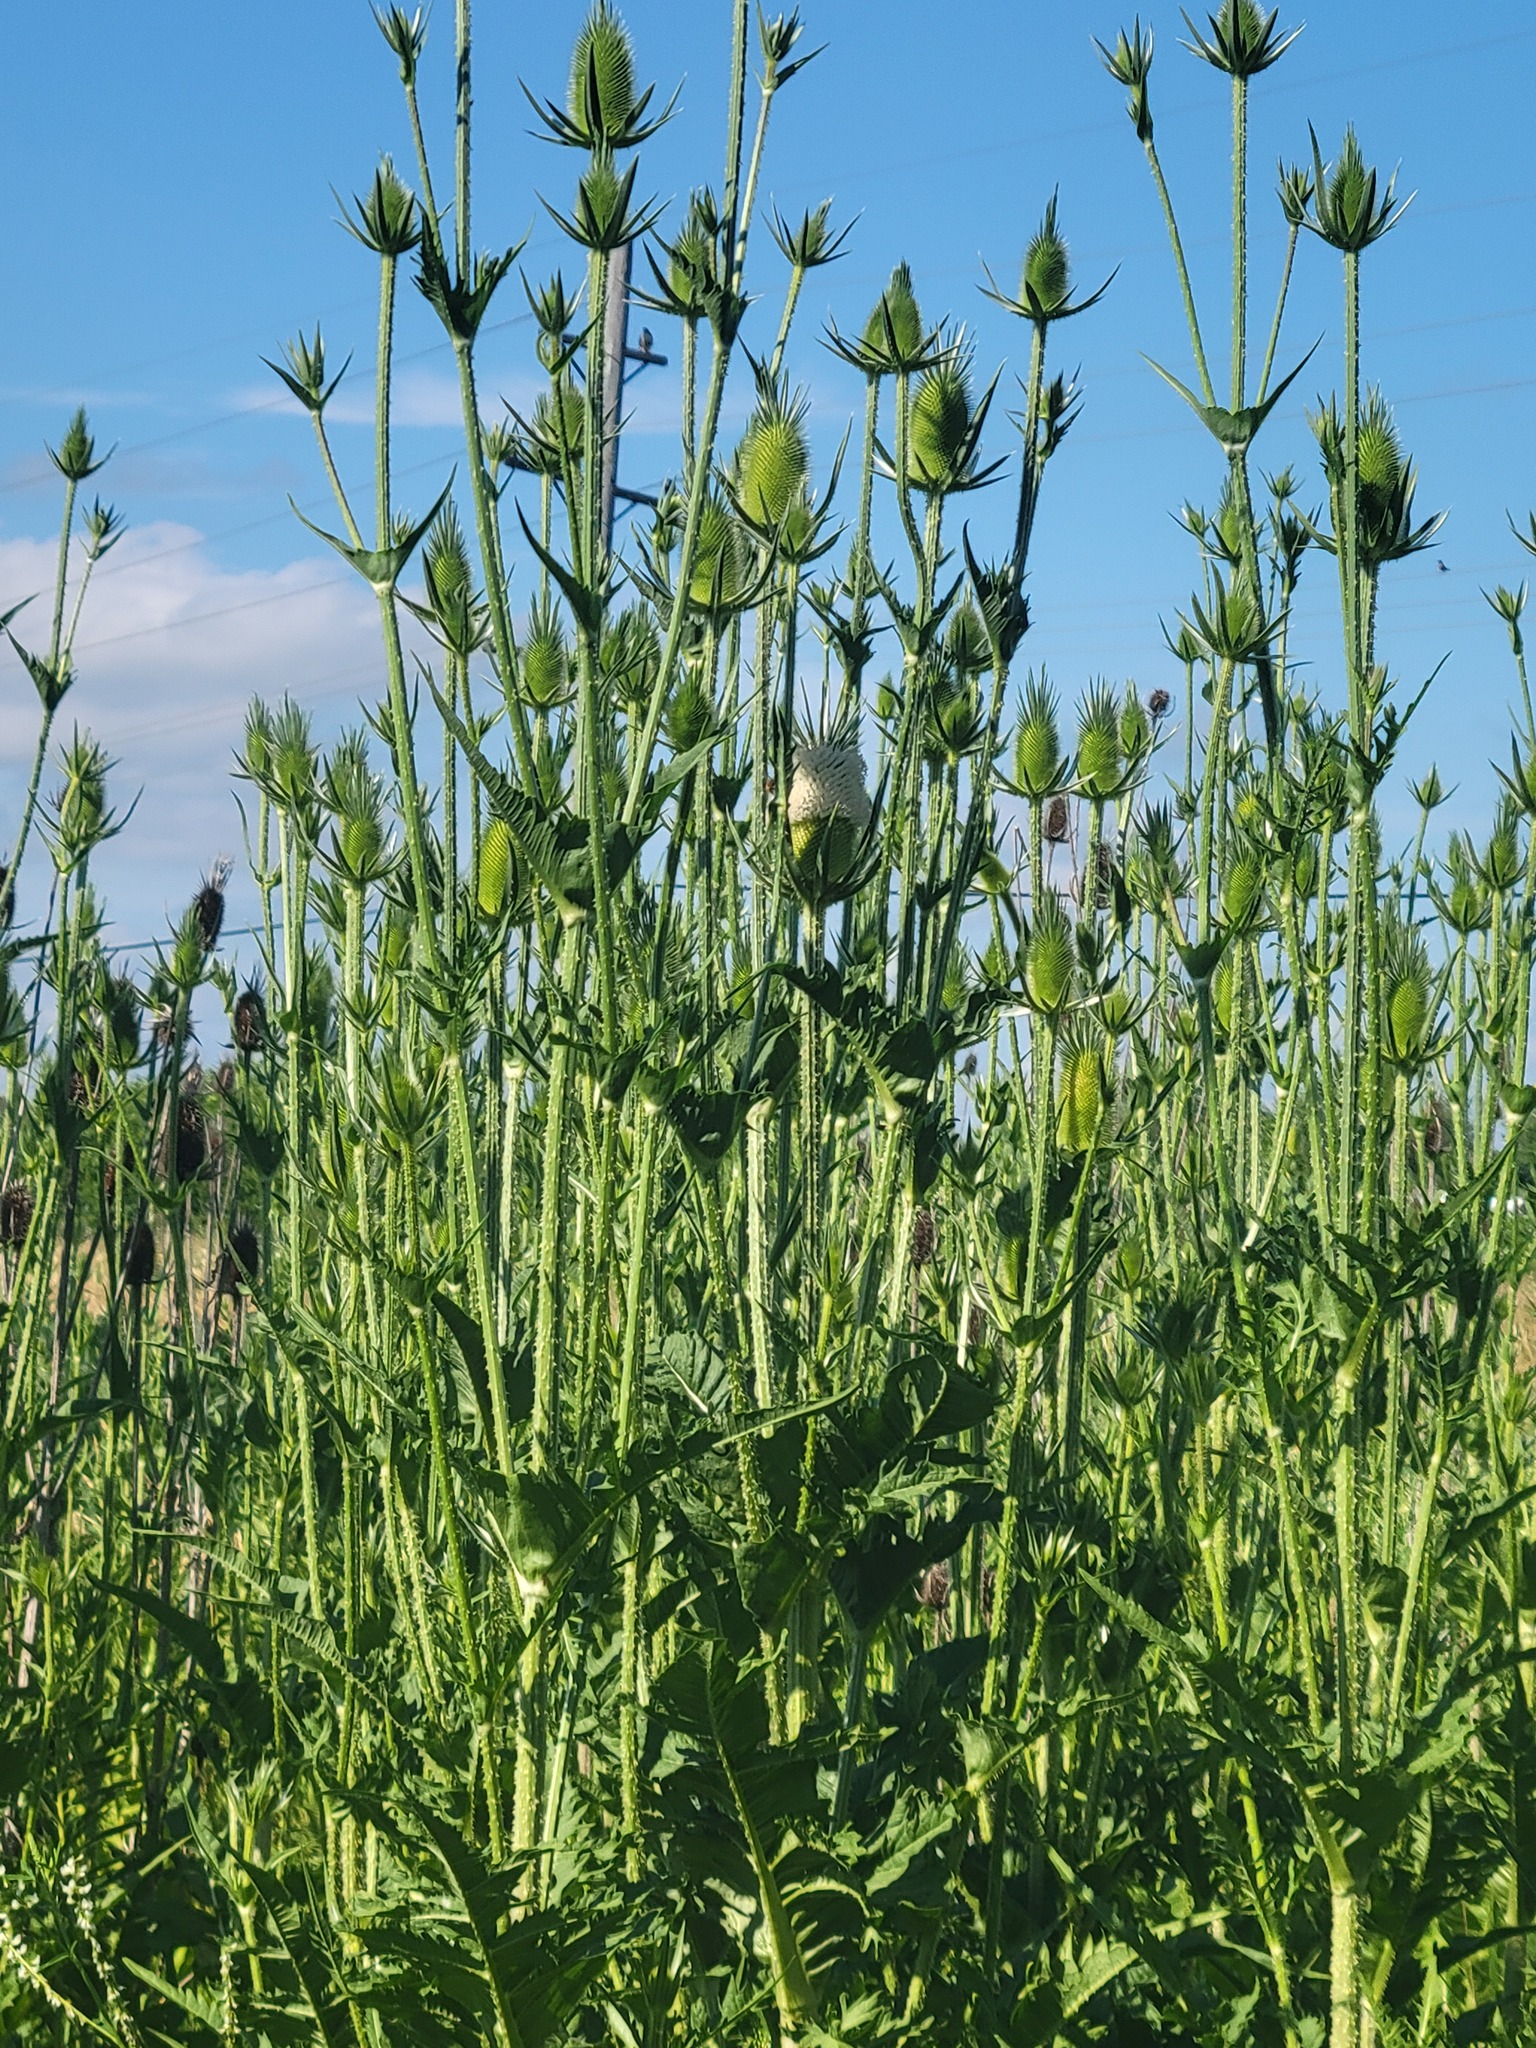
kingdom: Plantae
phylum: Tracheophyta
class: Magnoliopsida
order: Dipsacales
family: Caprifoliaceae
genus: Dipsacus
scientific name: Dipsacus laciniatus
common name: Cut-leaved teasel
